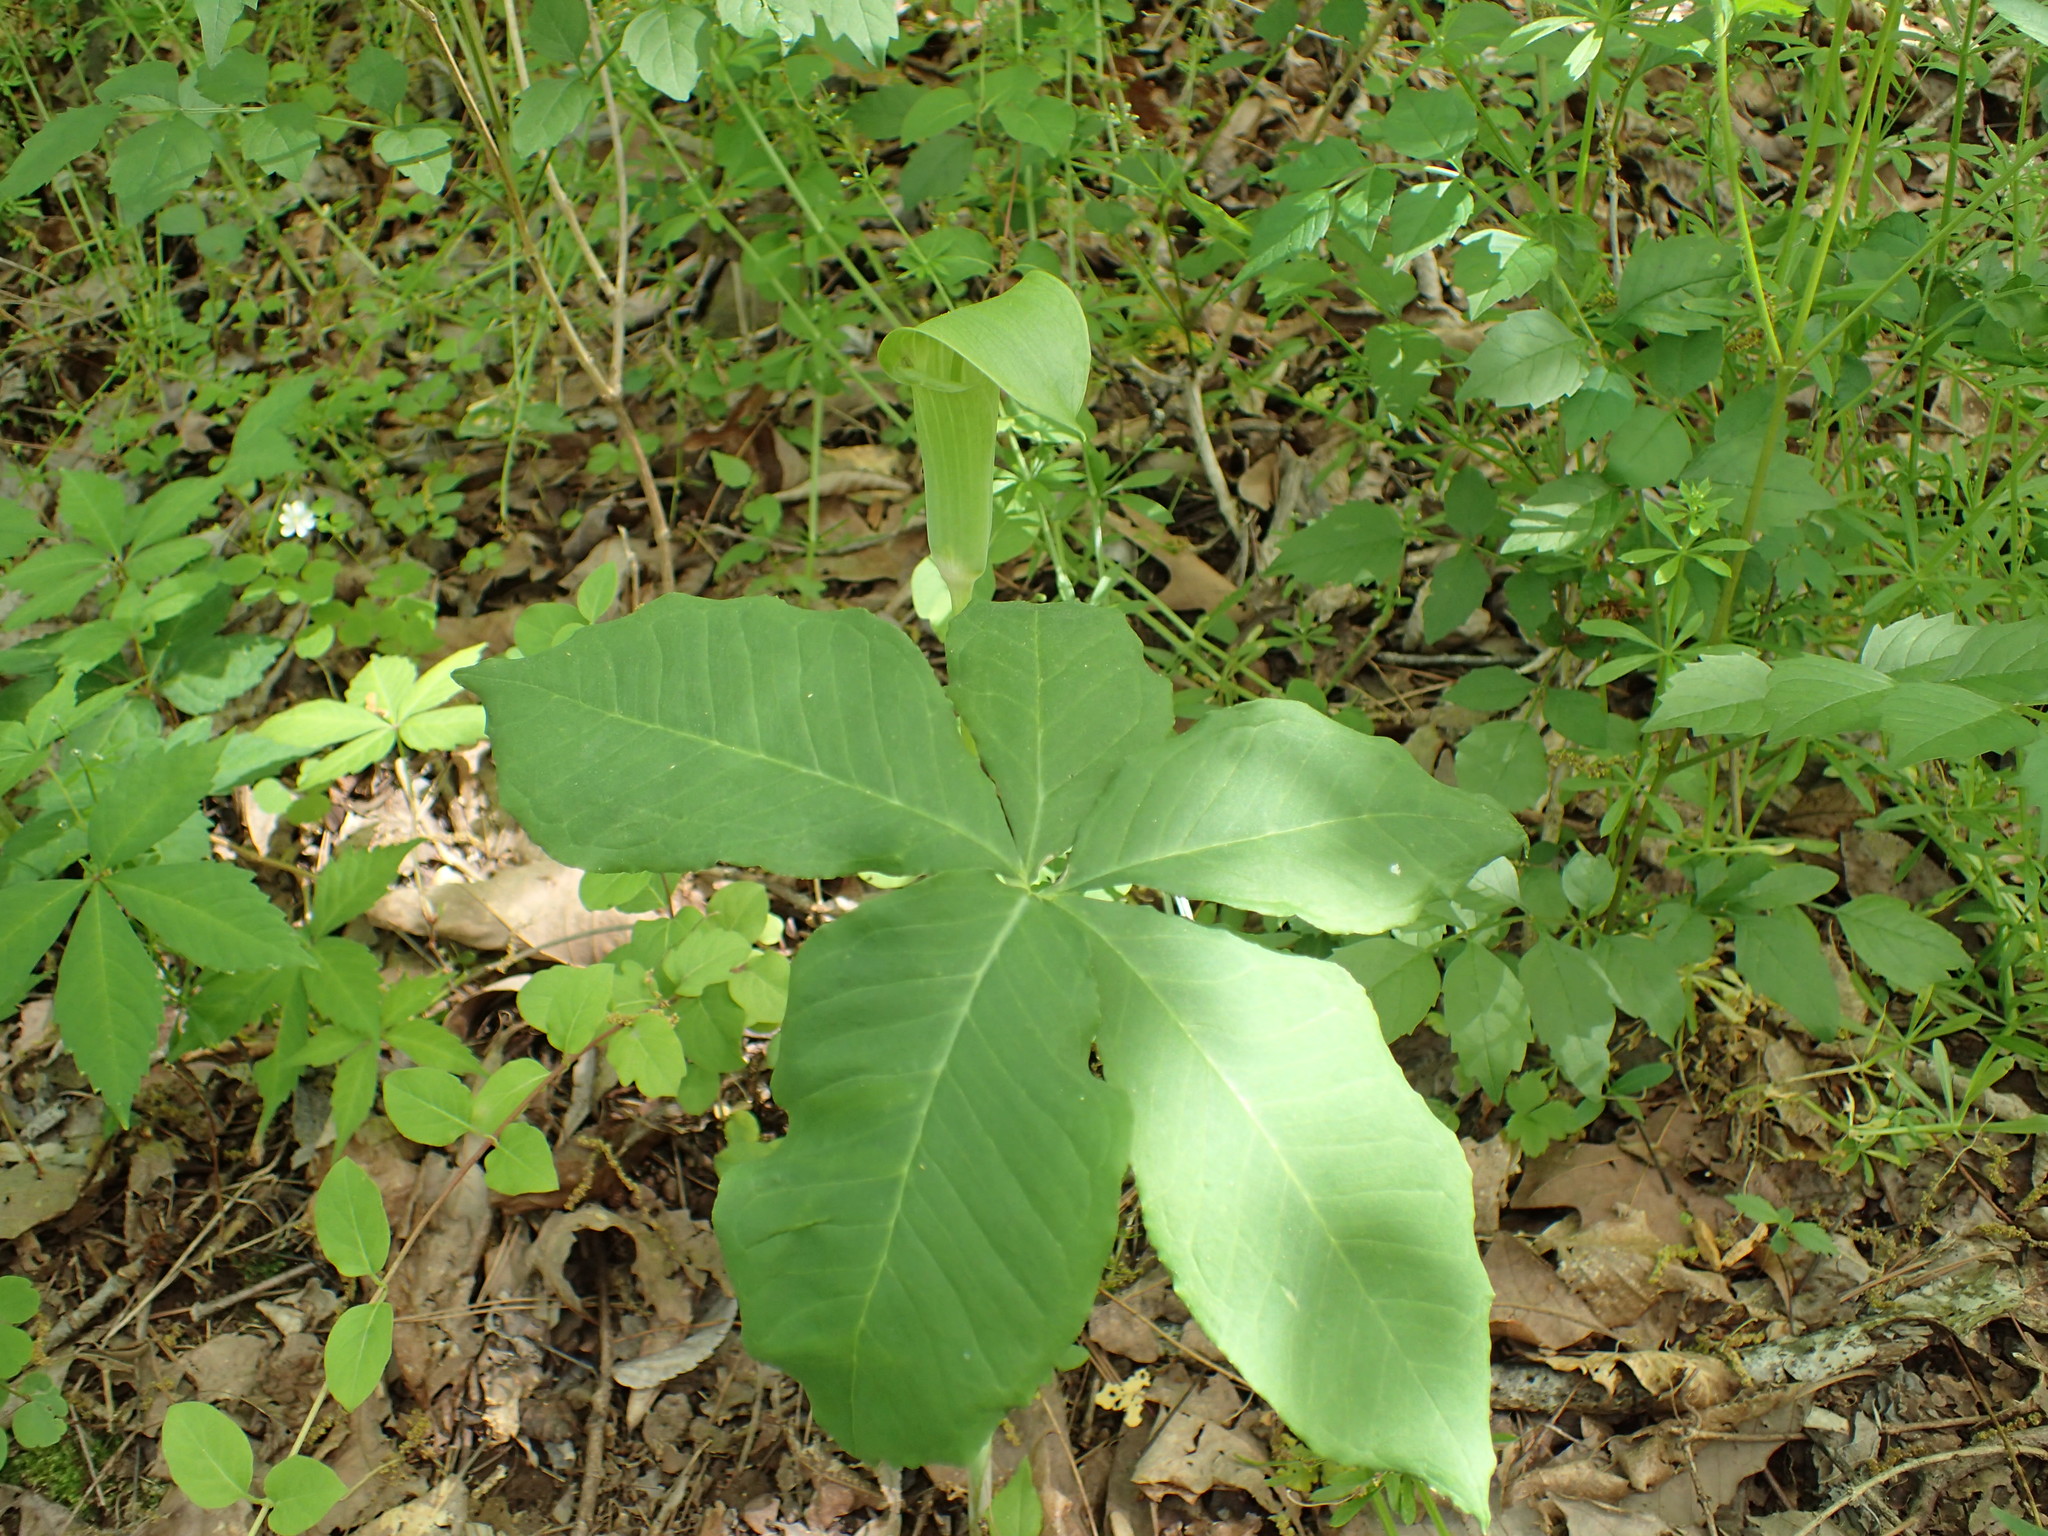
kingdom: Plantae
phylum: Tracheophyta
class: Liliopsida
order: Alismatales
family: Araceae
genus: Arisaema
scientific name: Arisaema quinatum
